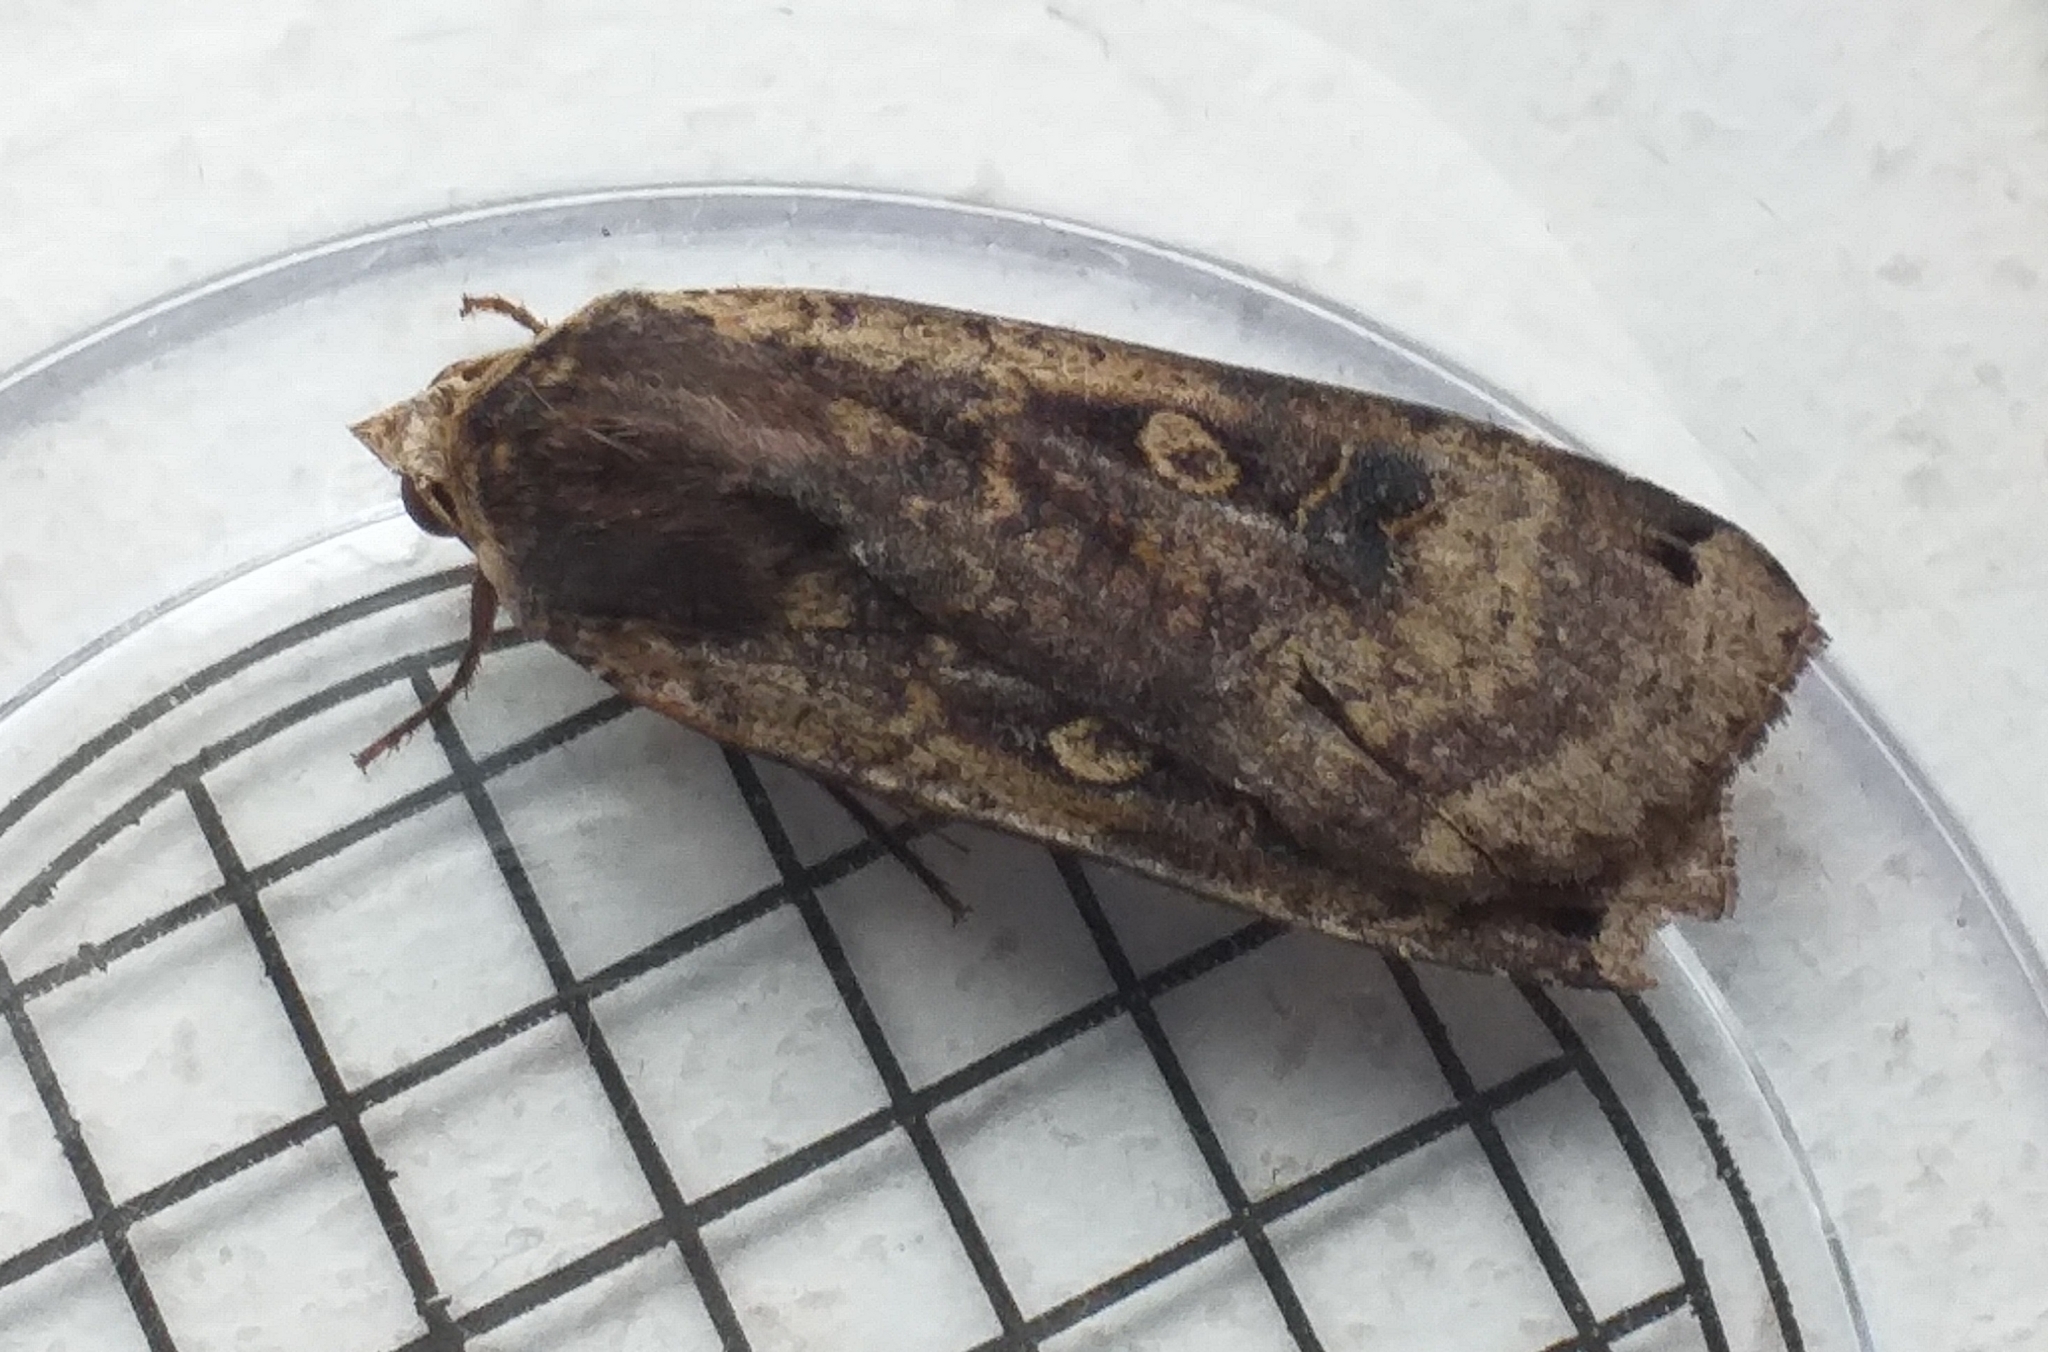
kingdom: Animalia
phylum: Arthropoda
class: Insecta
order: Lepidoptera
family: Noctuidae
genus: Noctua
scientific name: Noctua pronuba
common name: Large yellow underwing
